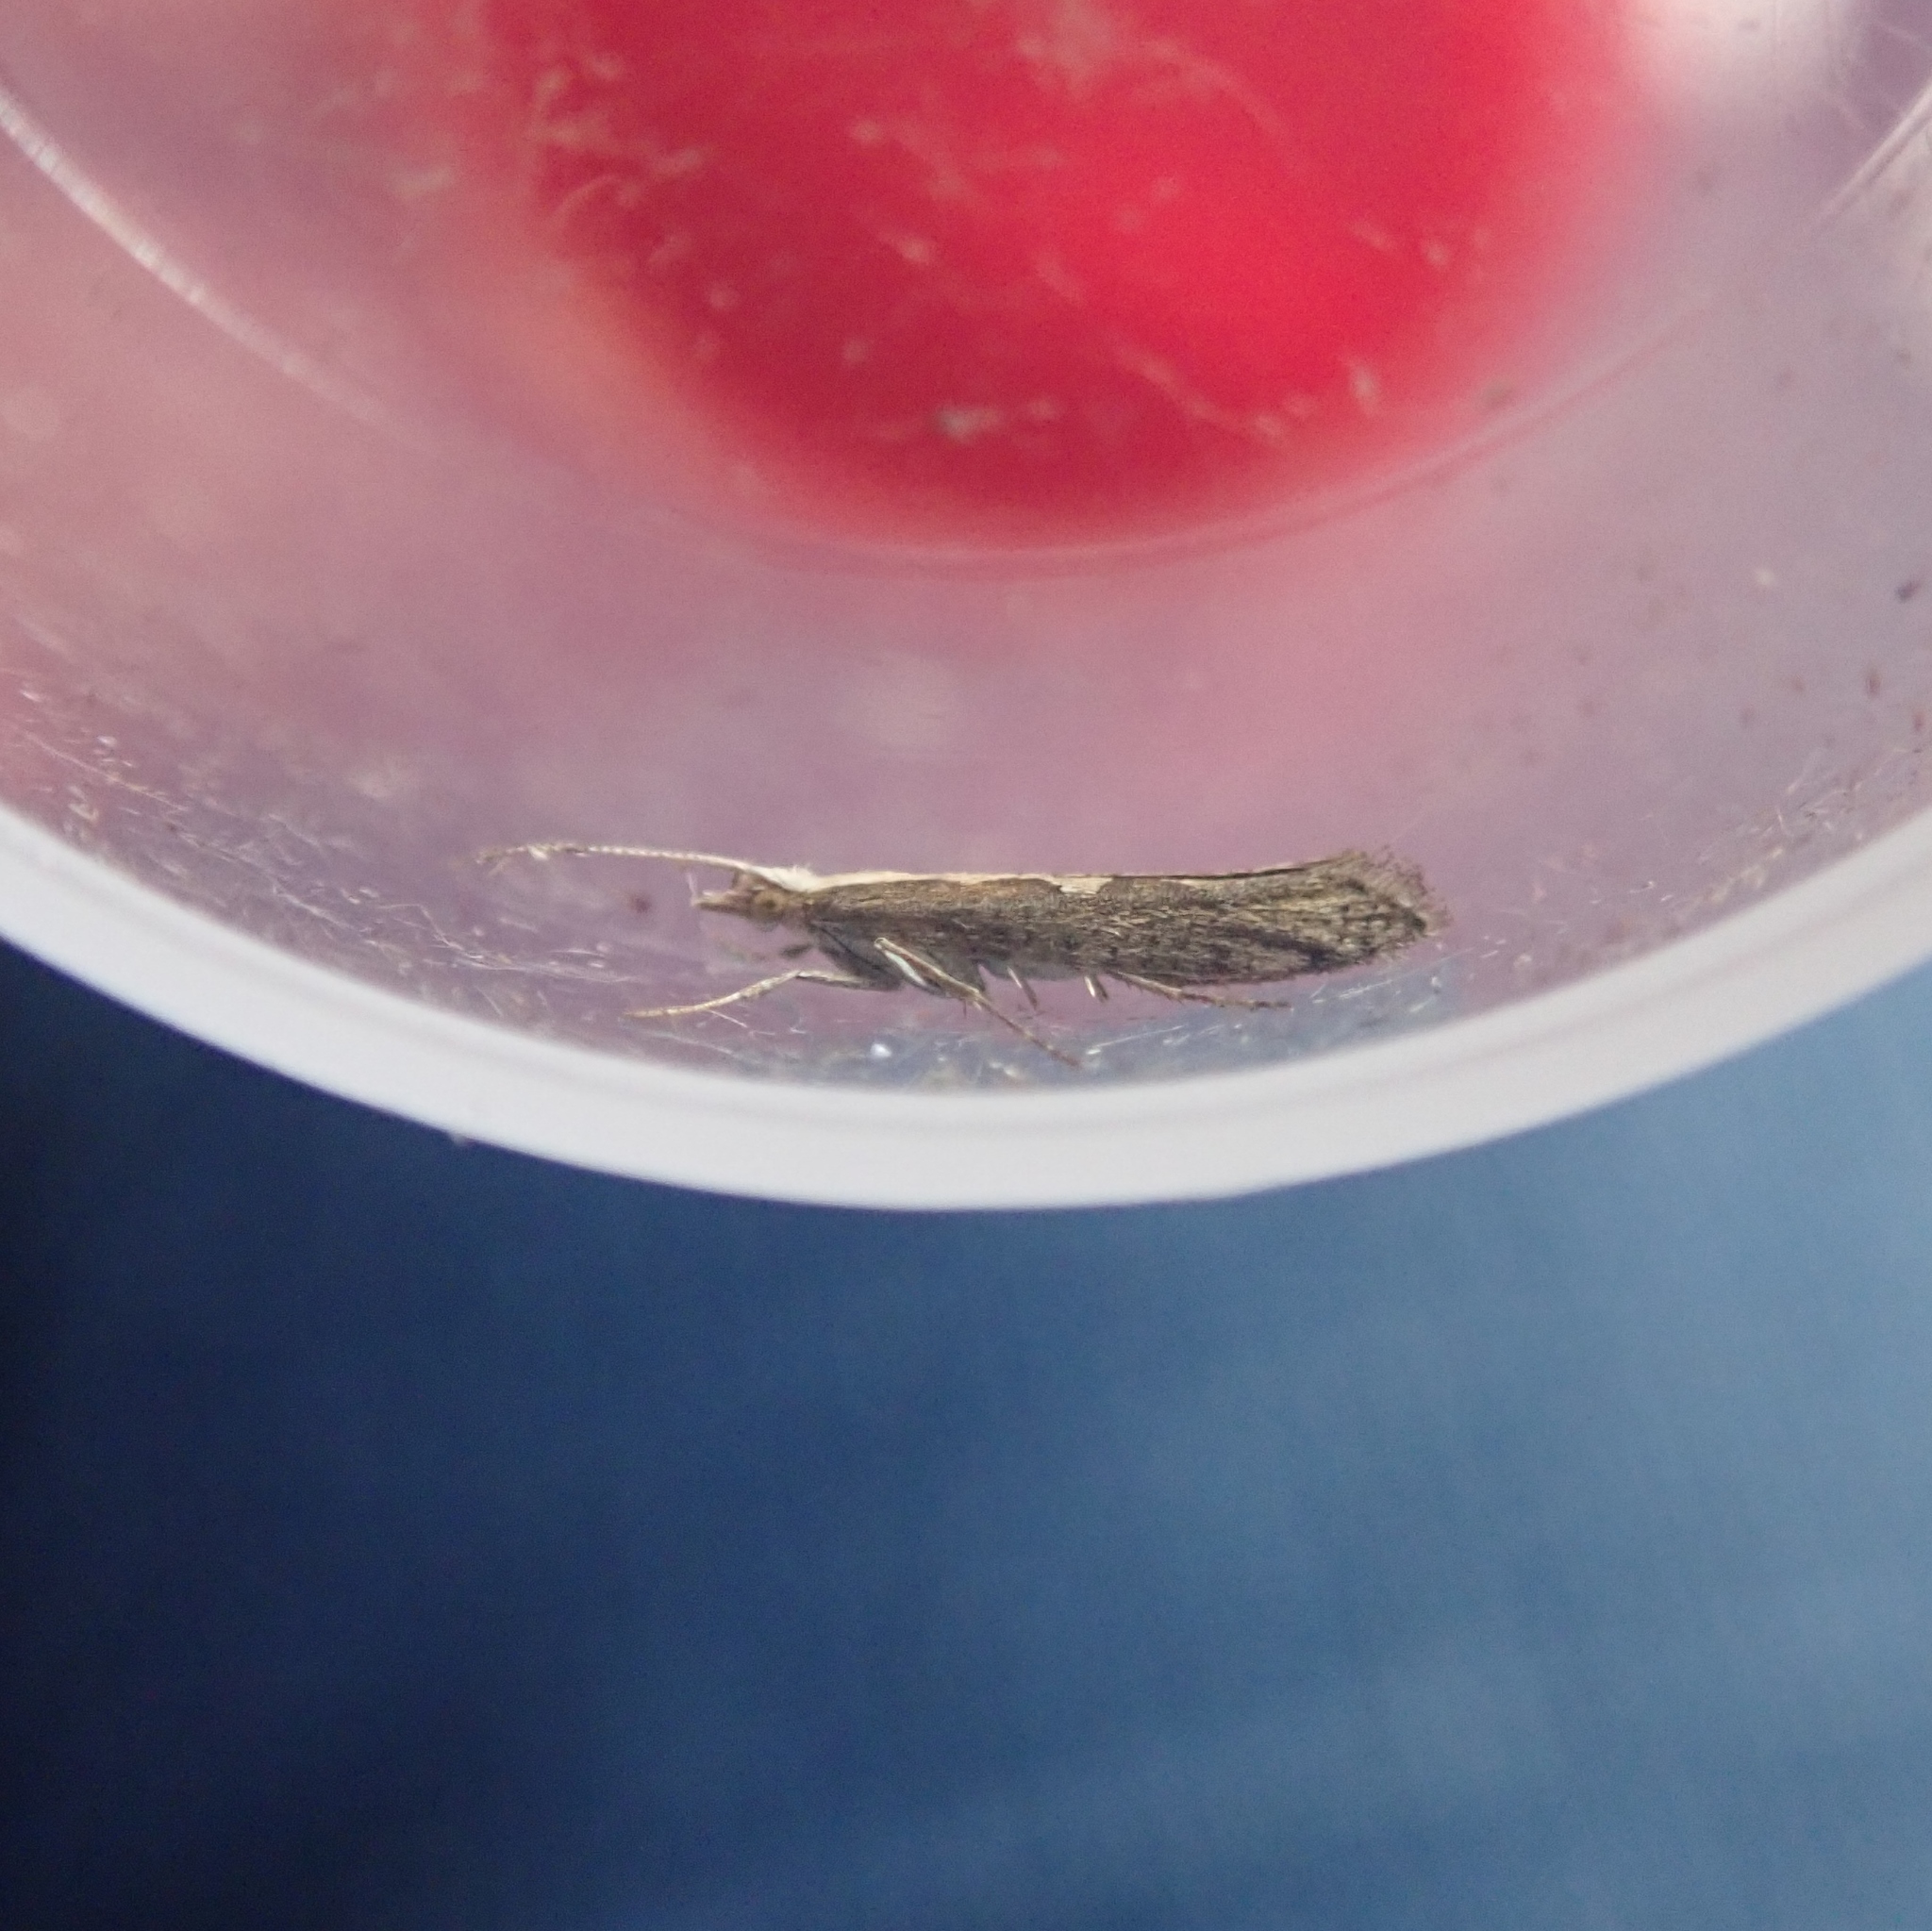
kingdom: Animalia
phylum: Arthropoda
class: Insecta
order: Lepidoptera
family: Plutellidae
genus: Plutella
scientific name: Plutella xylostella
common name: Diamond-back moth
